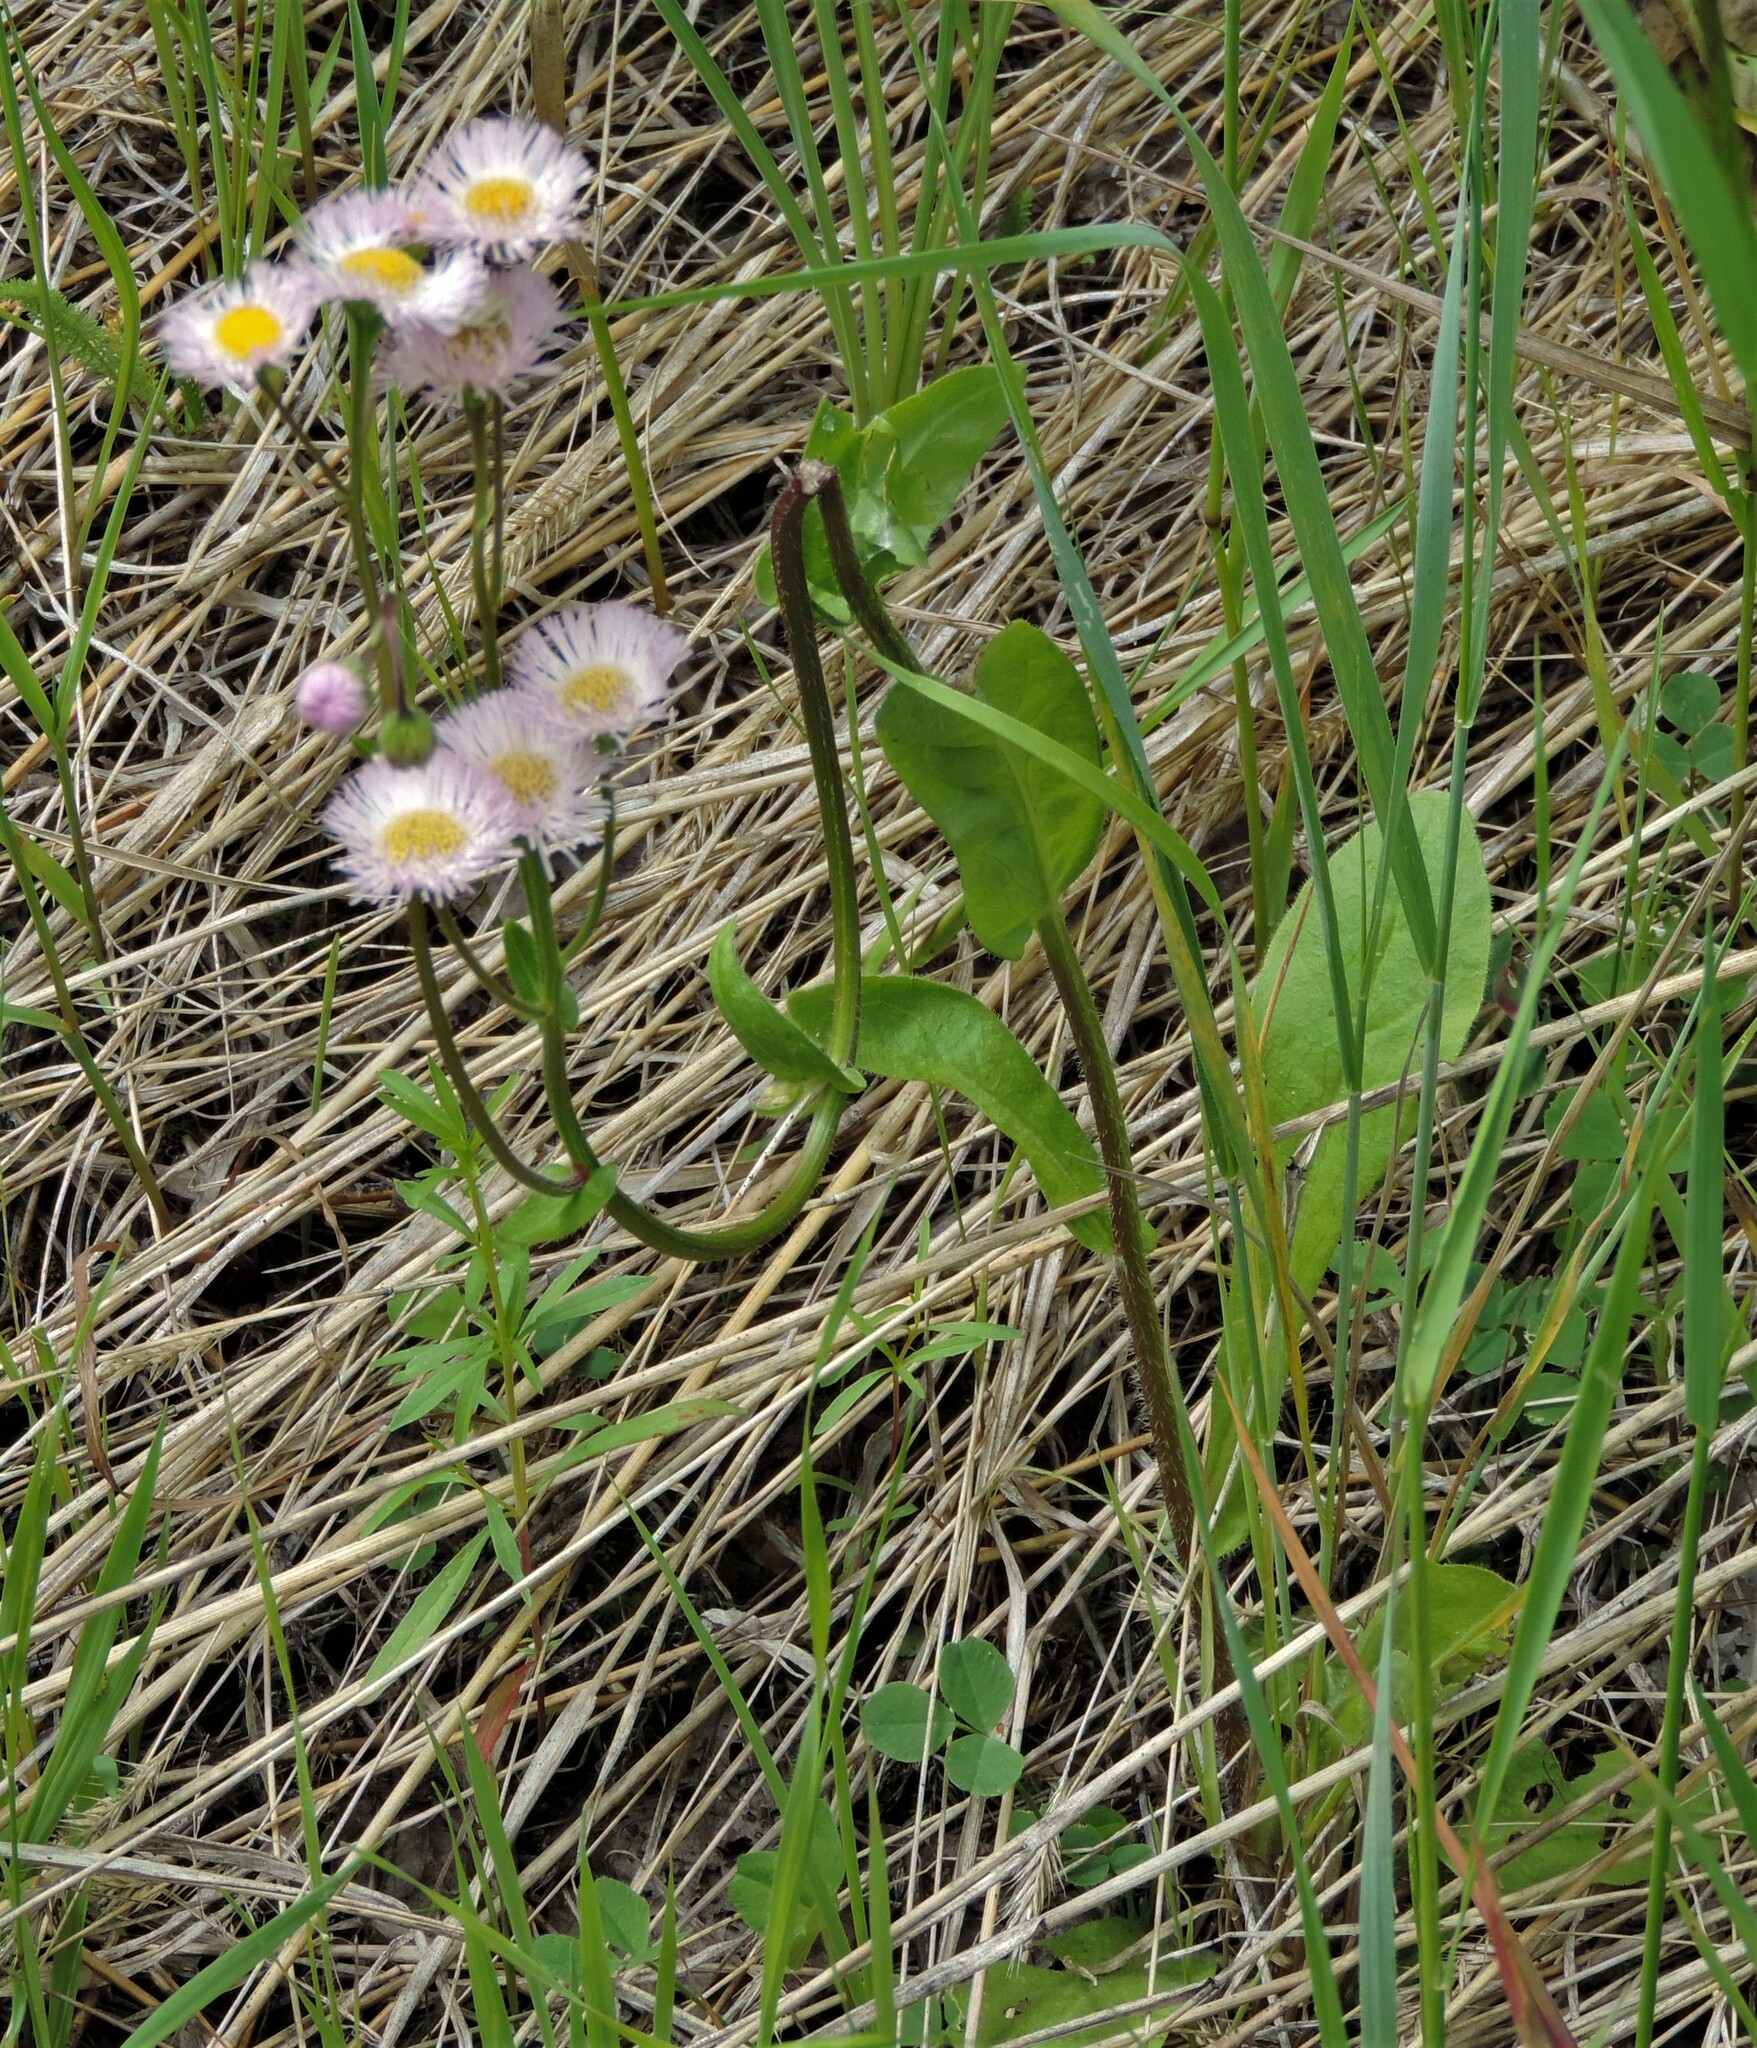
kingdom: Plantae
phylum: Tracheophyta
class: Magnoliopsida
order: Asterales
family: Asteraceae
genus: Erigeron
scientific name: Erigeron philadelphicus
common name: Robin's-plantain
